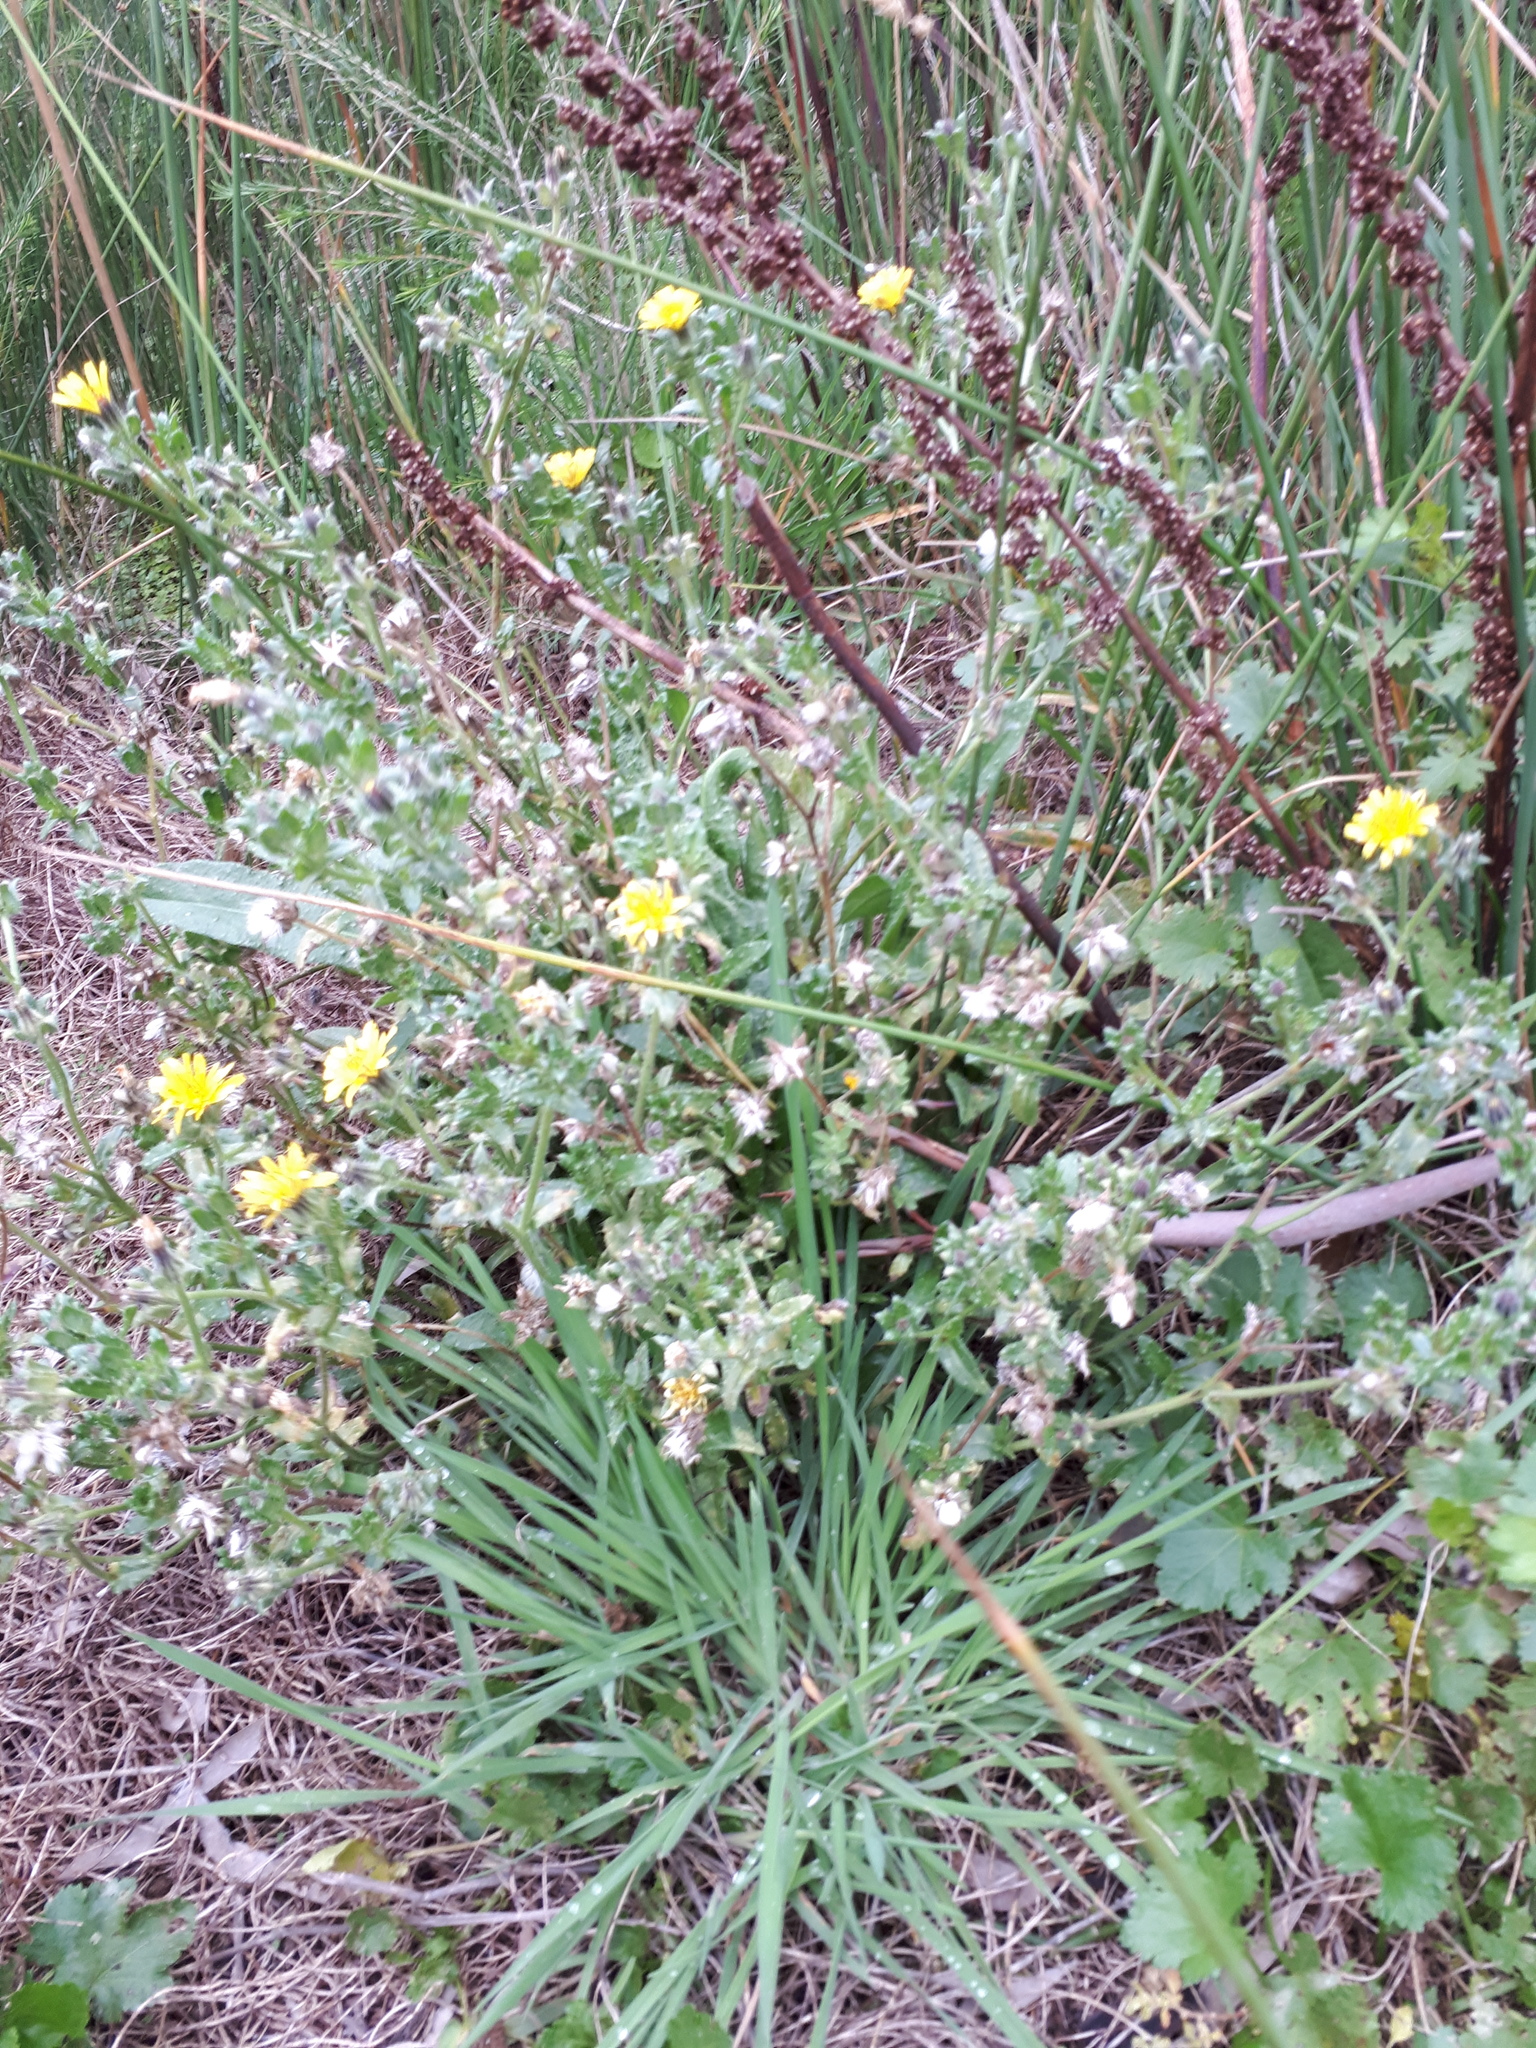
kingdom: Plantae
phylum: Tracheophyta
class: Magnoliopsida
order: Asterales
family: Asteraceae
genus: Helminthotheca
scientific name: Helminthotheca echioides
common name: Ox-tongue
